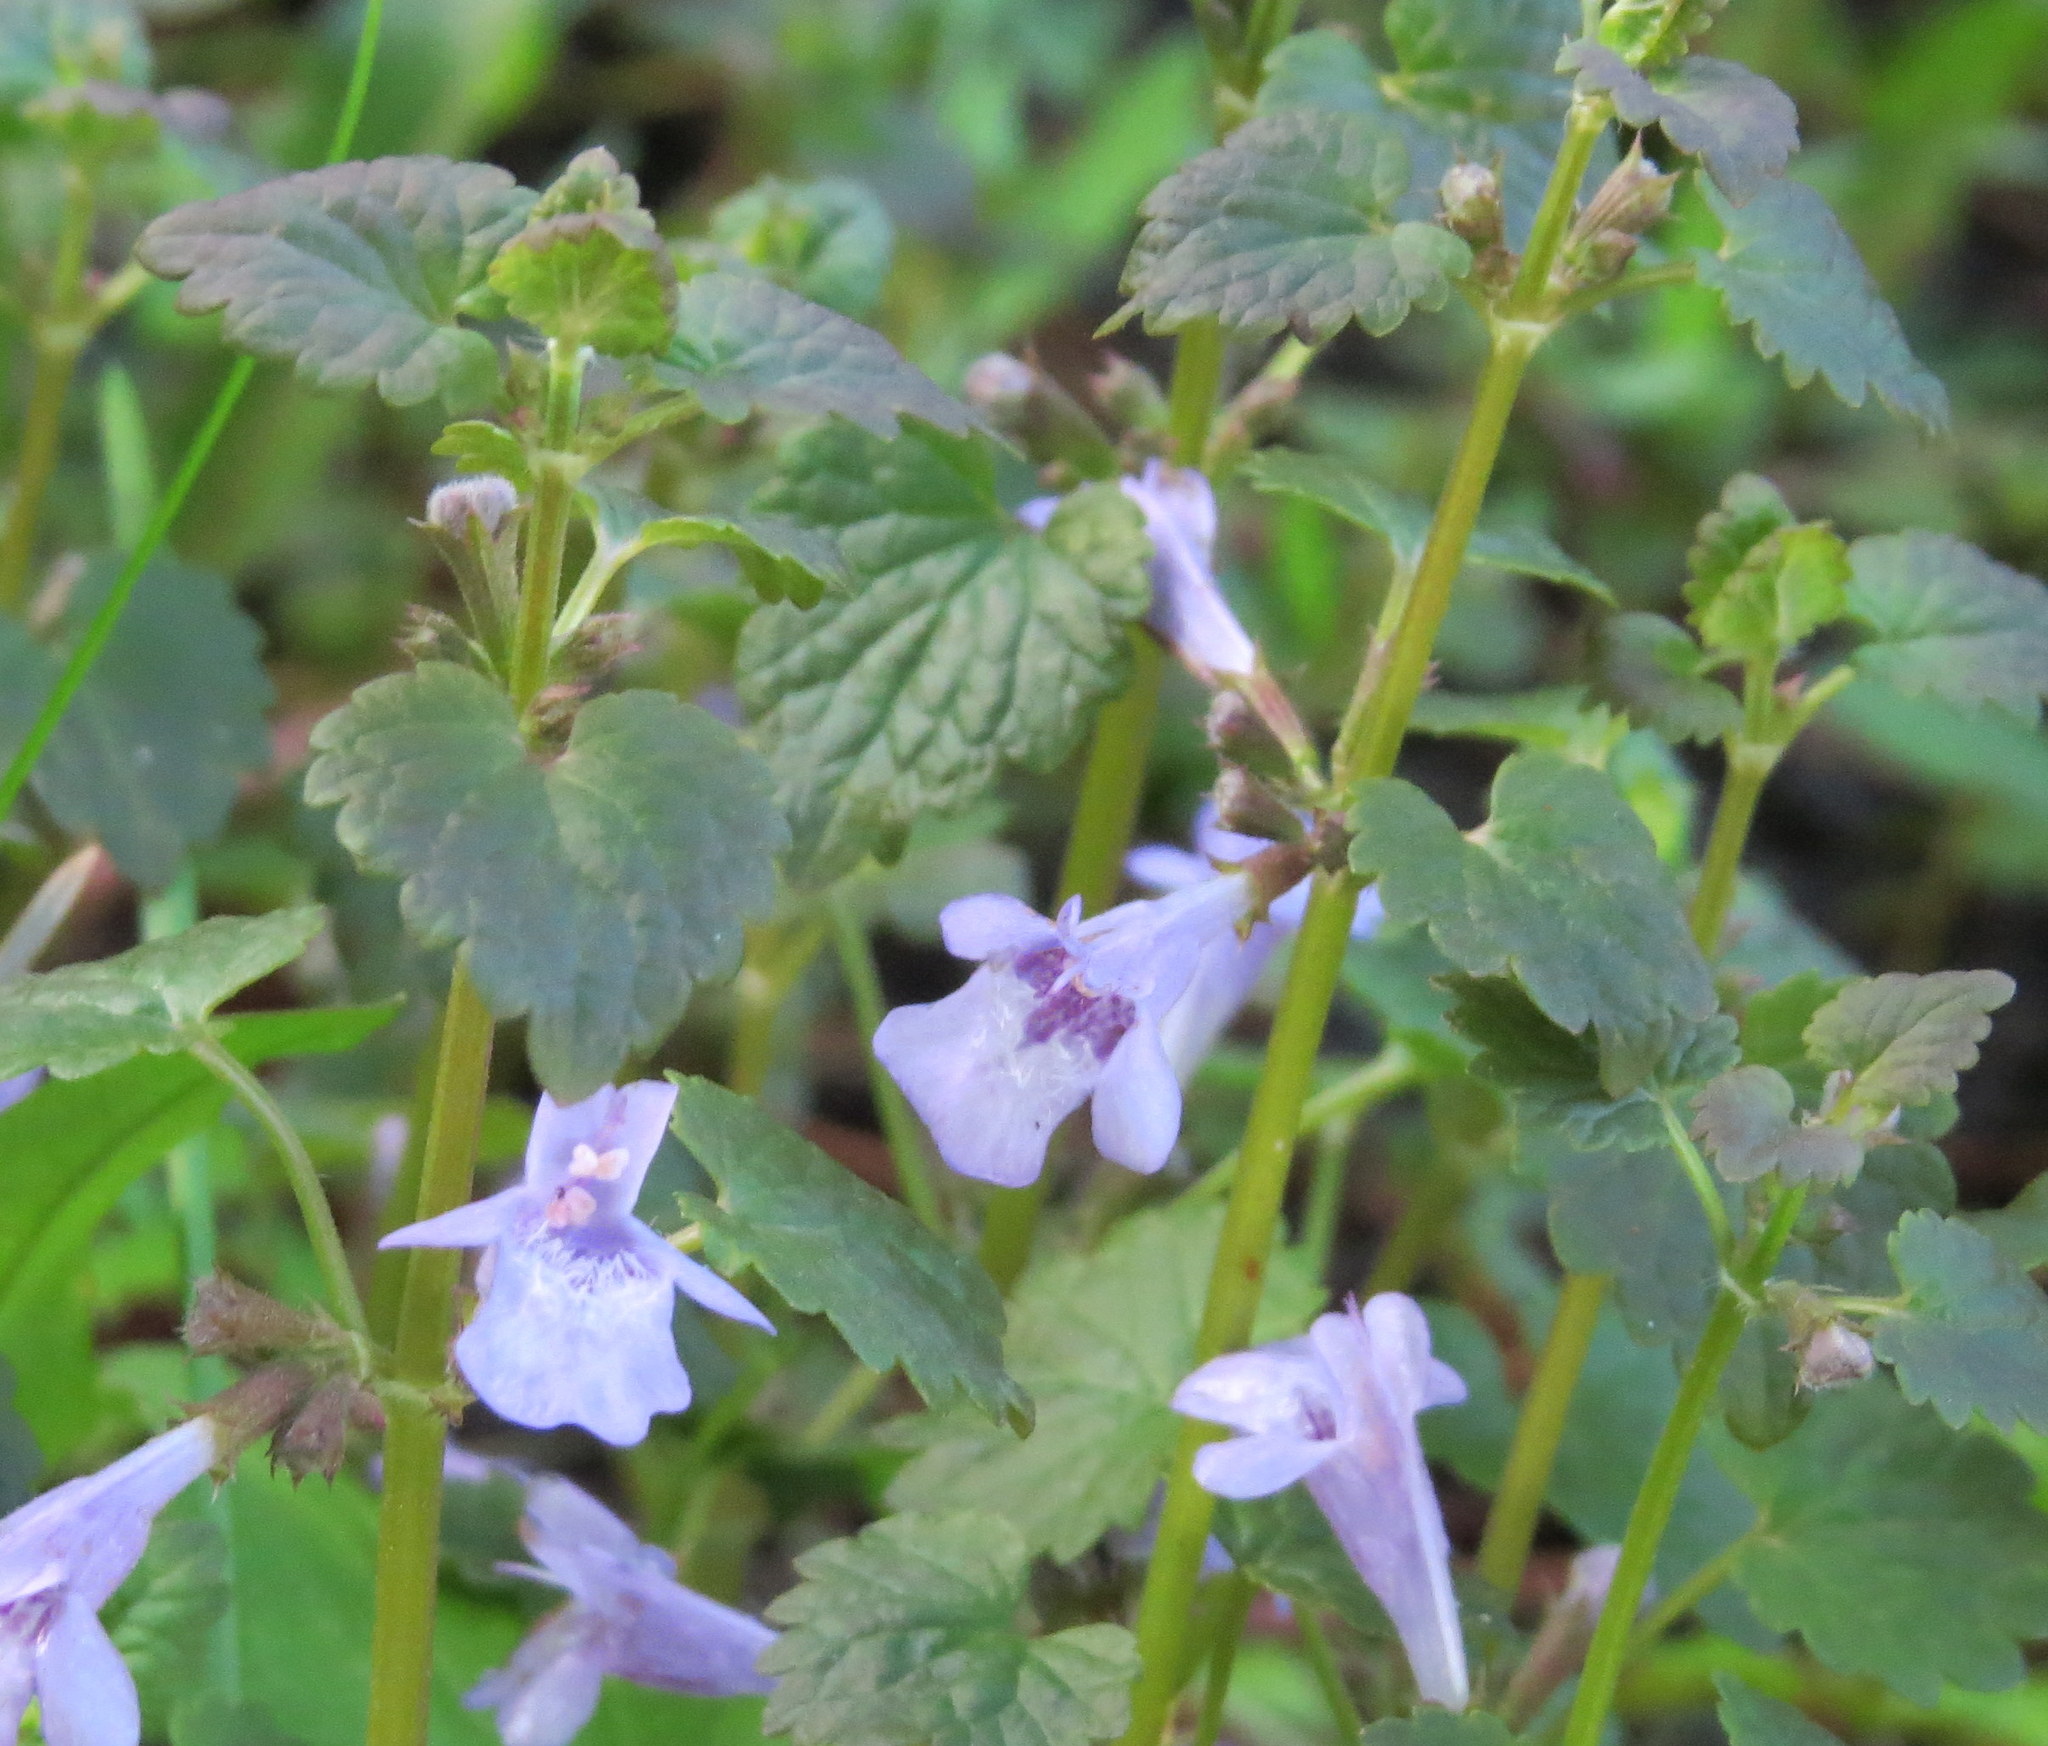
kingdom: Plantae
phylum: Tracheophyta
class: Magnoliopsida
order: Lamiales
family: Lamiaceae
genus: Glechoma
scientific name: Glechoma hederacea
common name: Ground ivy
